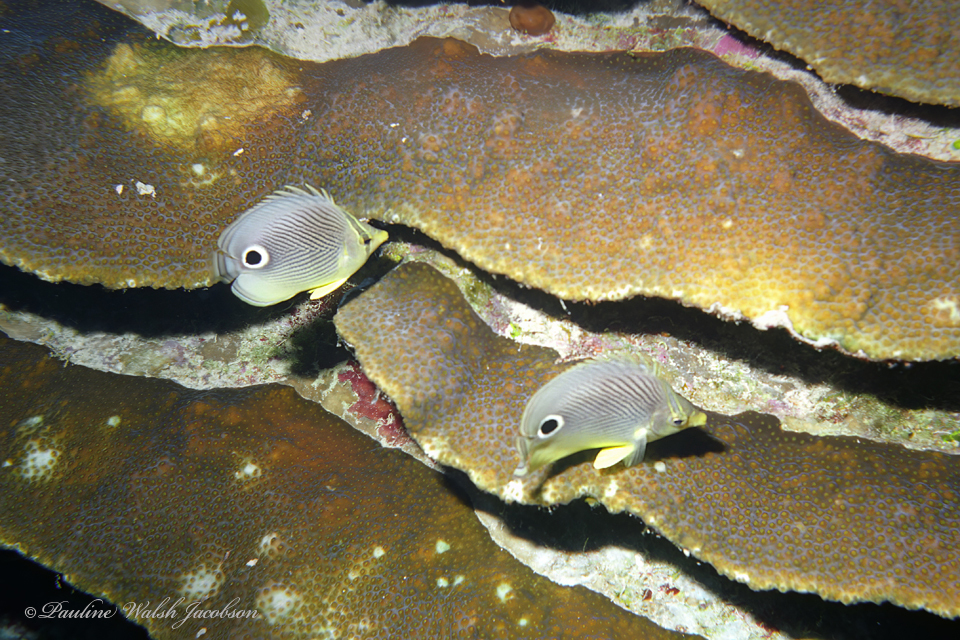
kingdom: Animalia
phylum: Chordata
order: Perciformes
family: Chaetodontidae
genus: Chaetodon
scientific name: Chaetodon capistratus
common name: Kete
